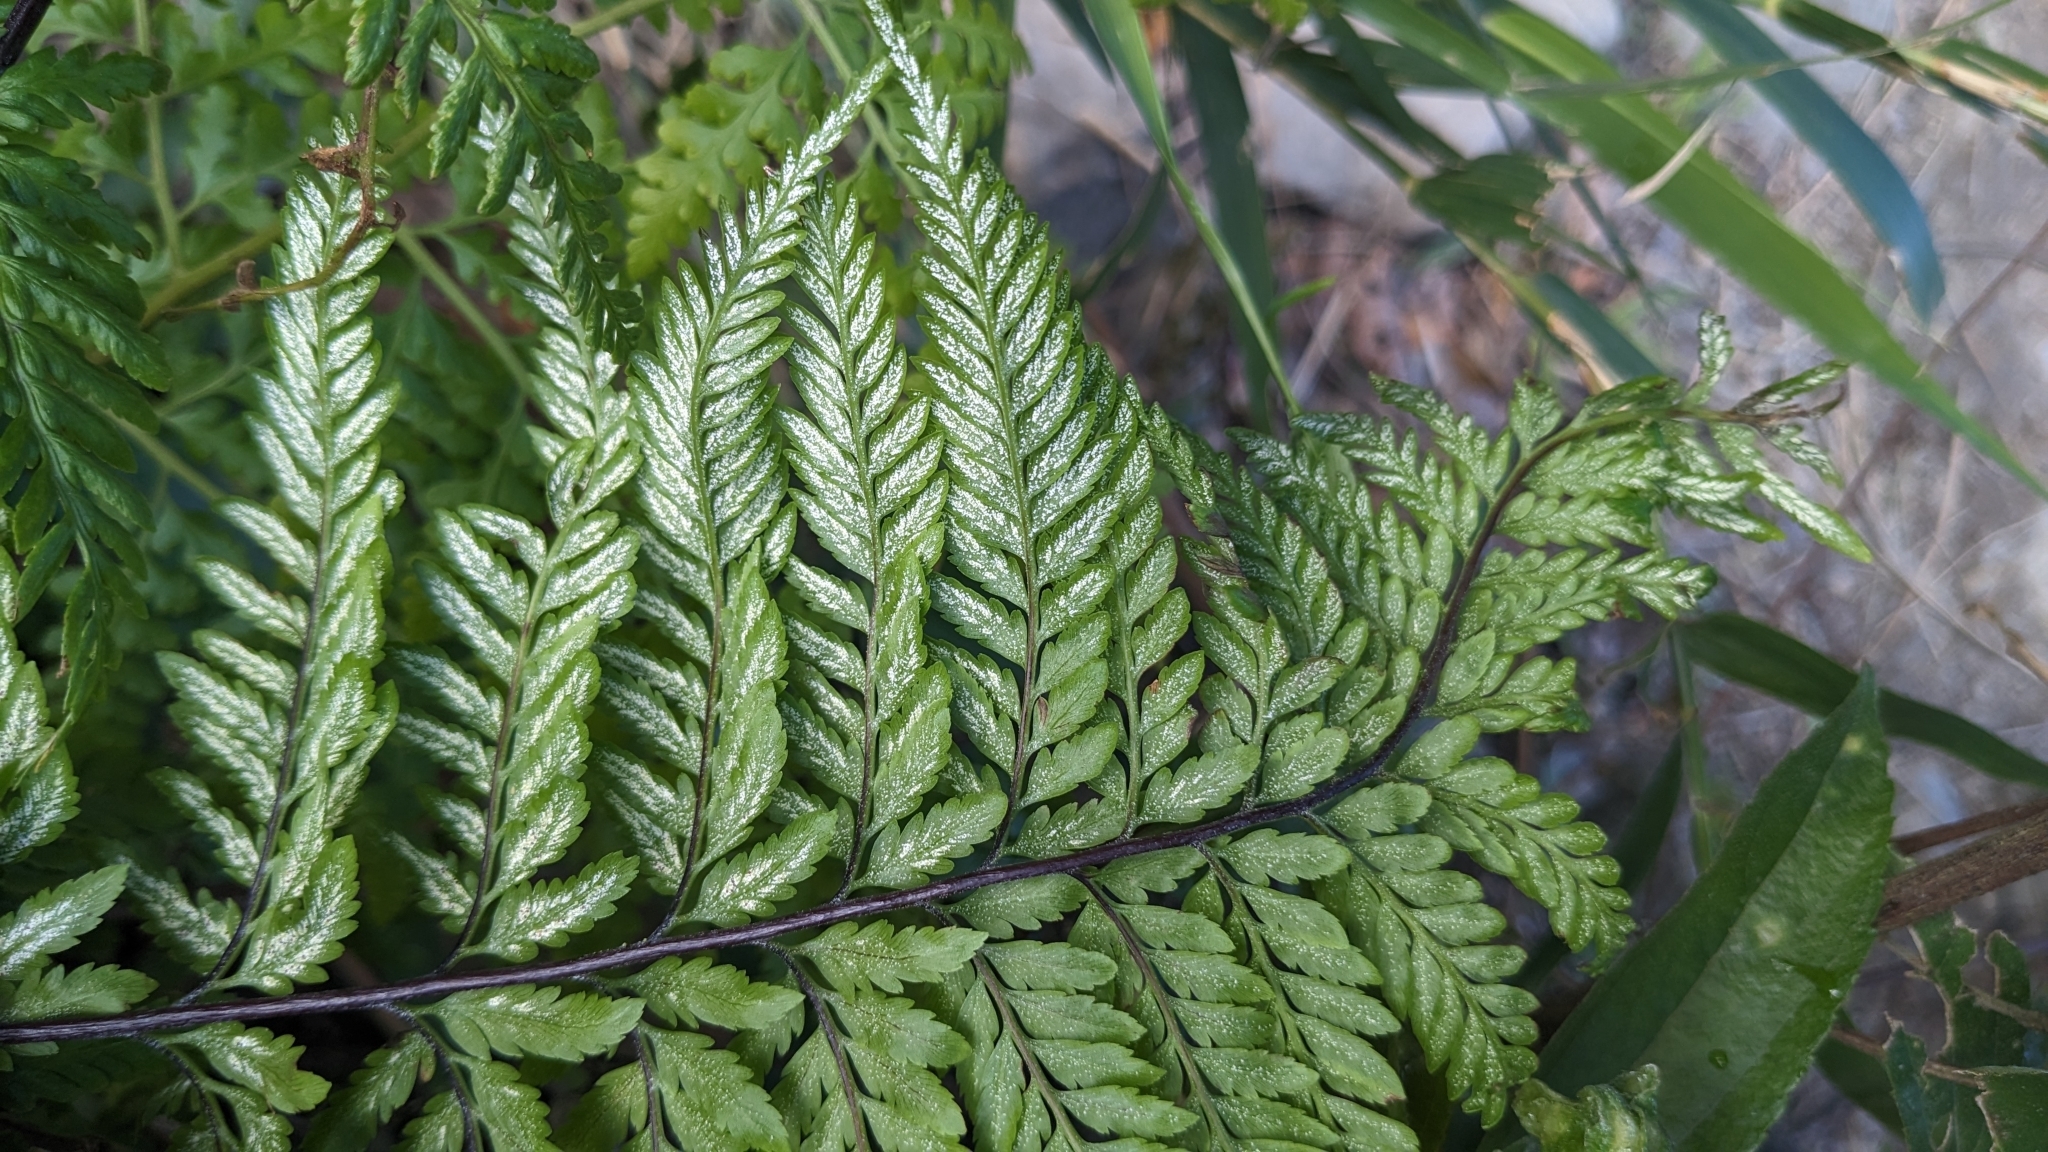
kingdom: Plantae
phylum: Tracheophyta
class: Polypodiopsida
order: Polypodiales
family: Pteridaceae
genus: Pityrogramma
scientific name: Pityrogramma calomelanos
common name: Dixie silverback fern
